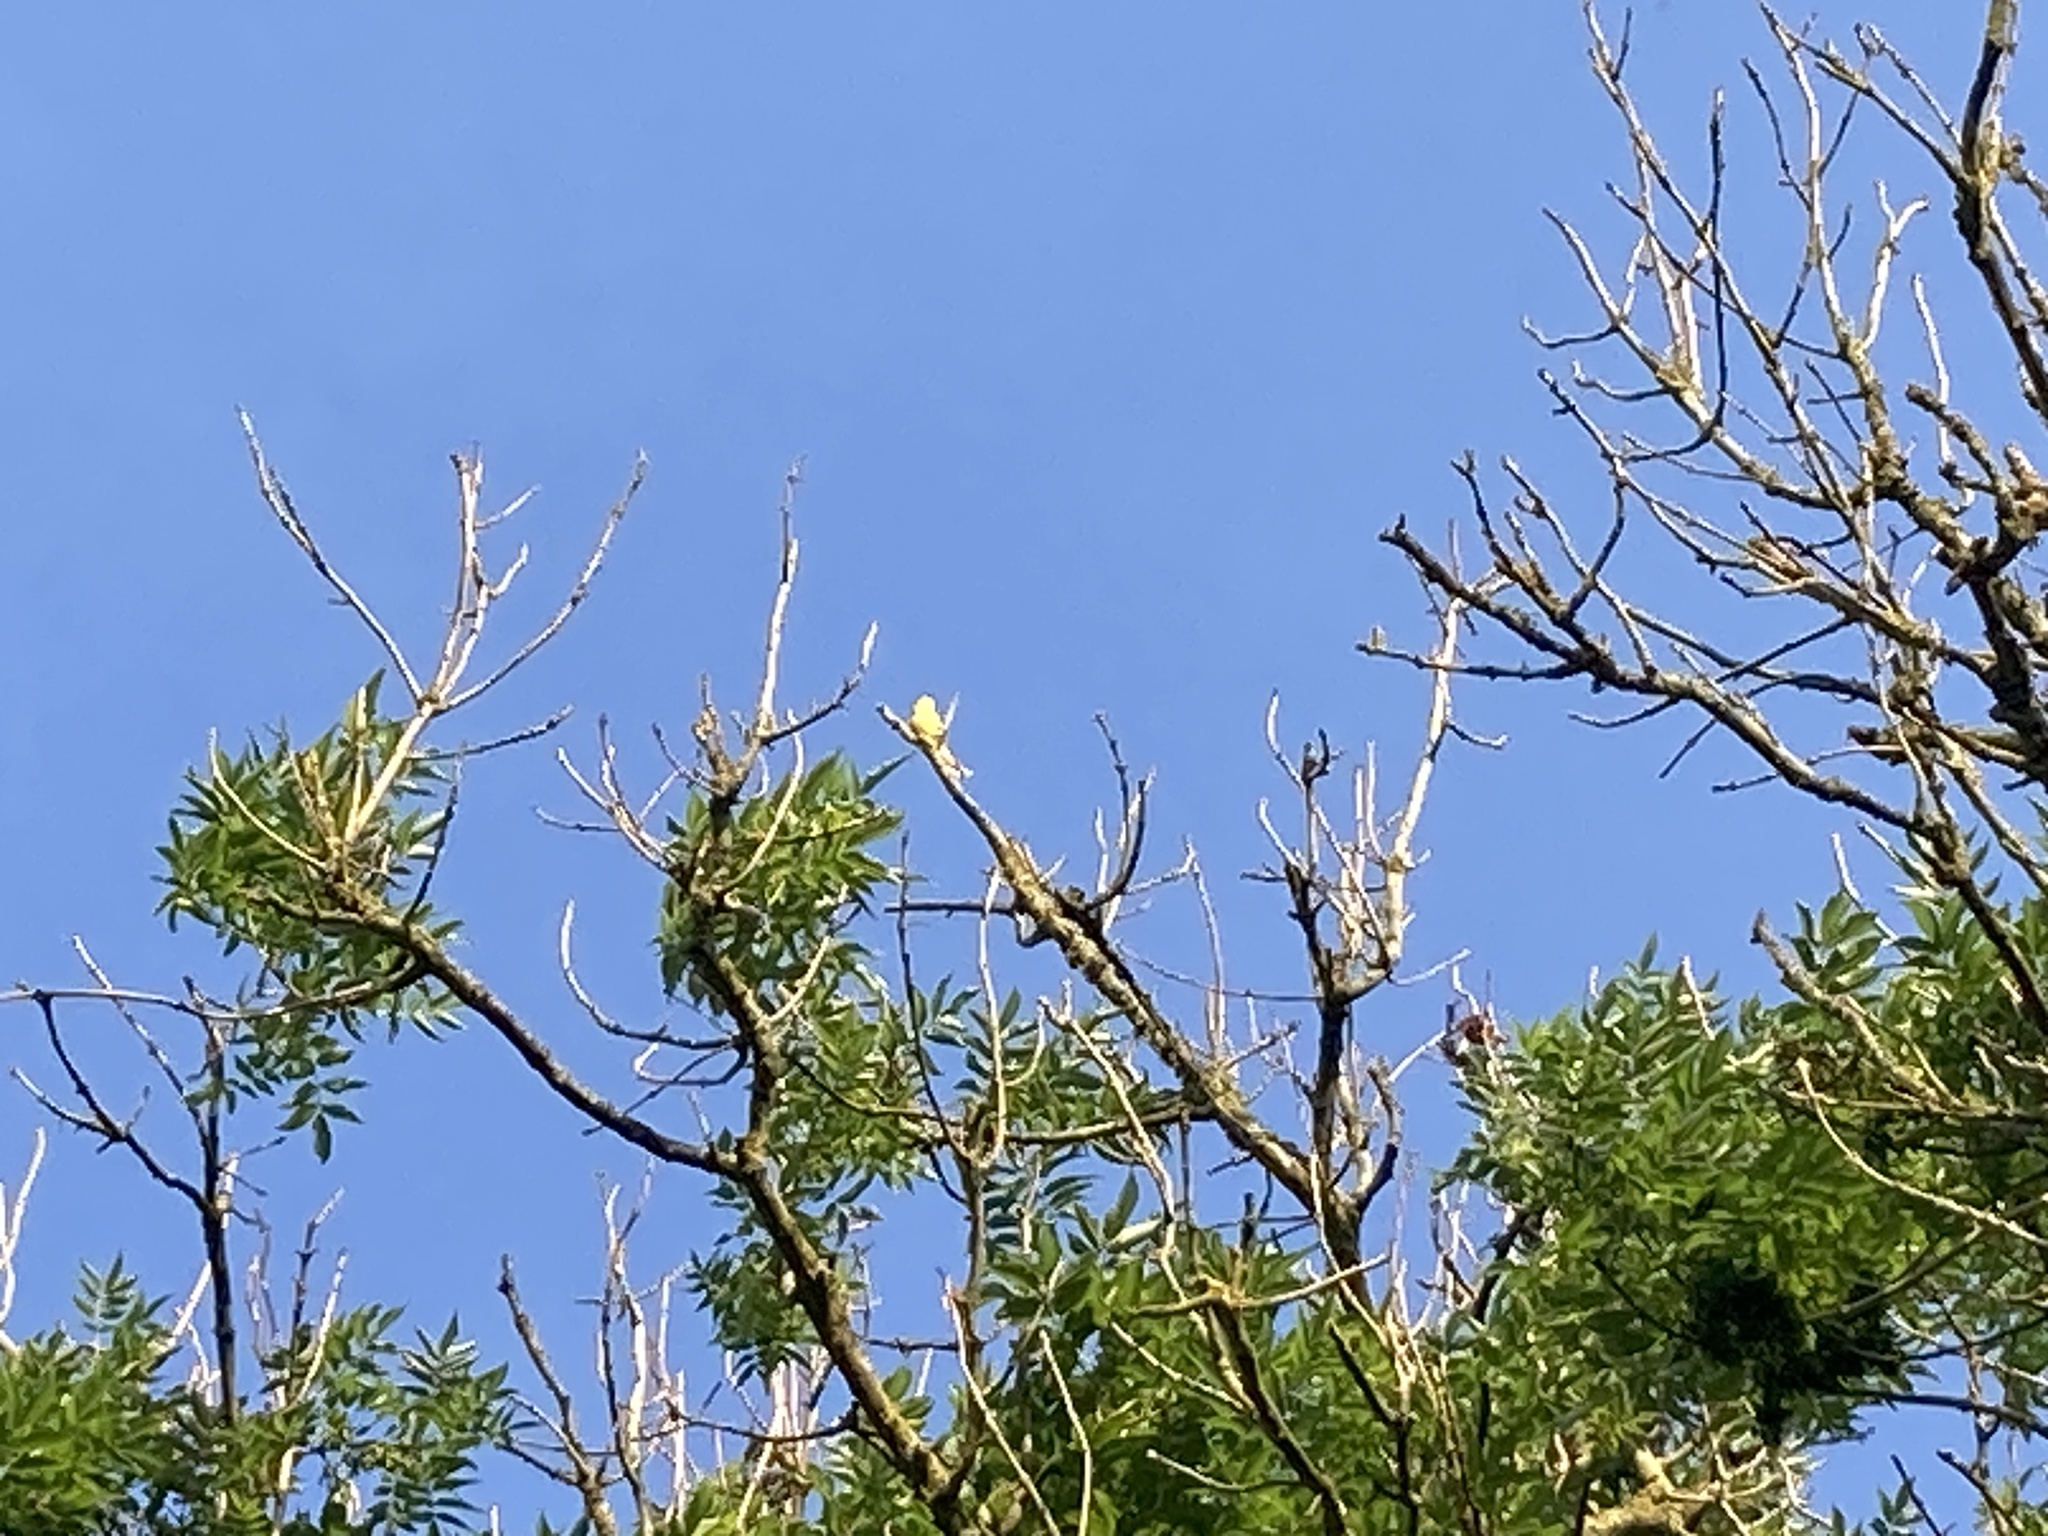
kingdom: Animalia
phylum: Chordata
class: Aves
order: Passeriformes
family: Emberizidae
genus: Emberiza
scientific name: Emberiza citrinella
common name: Yellowhammer
